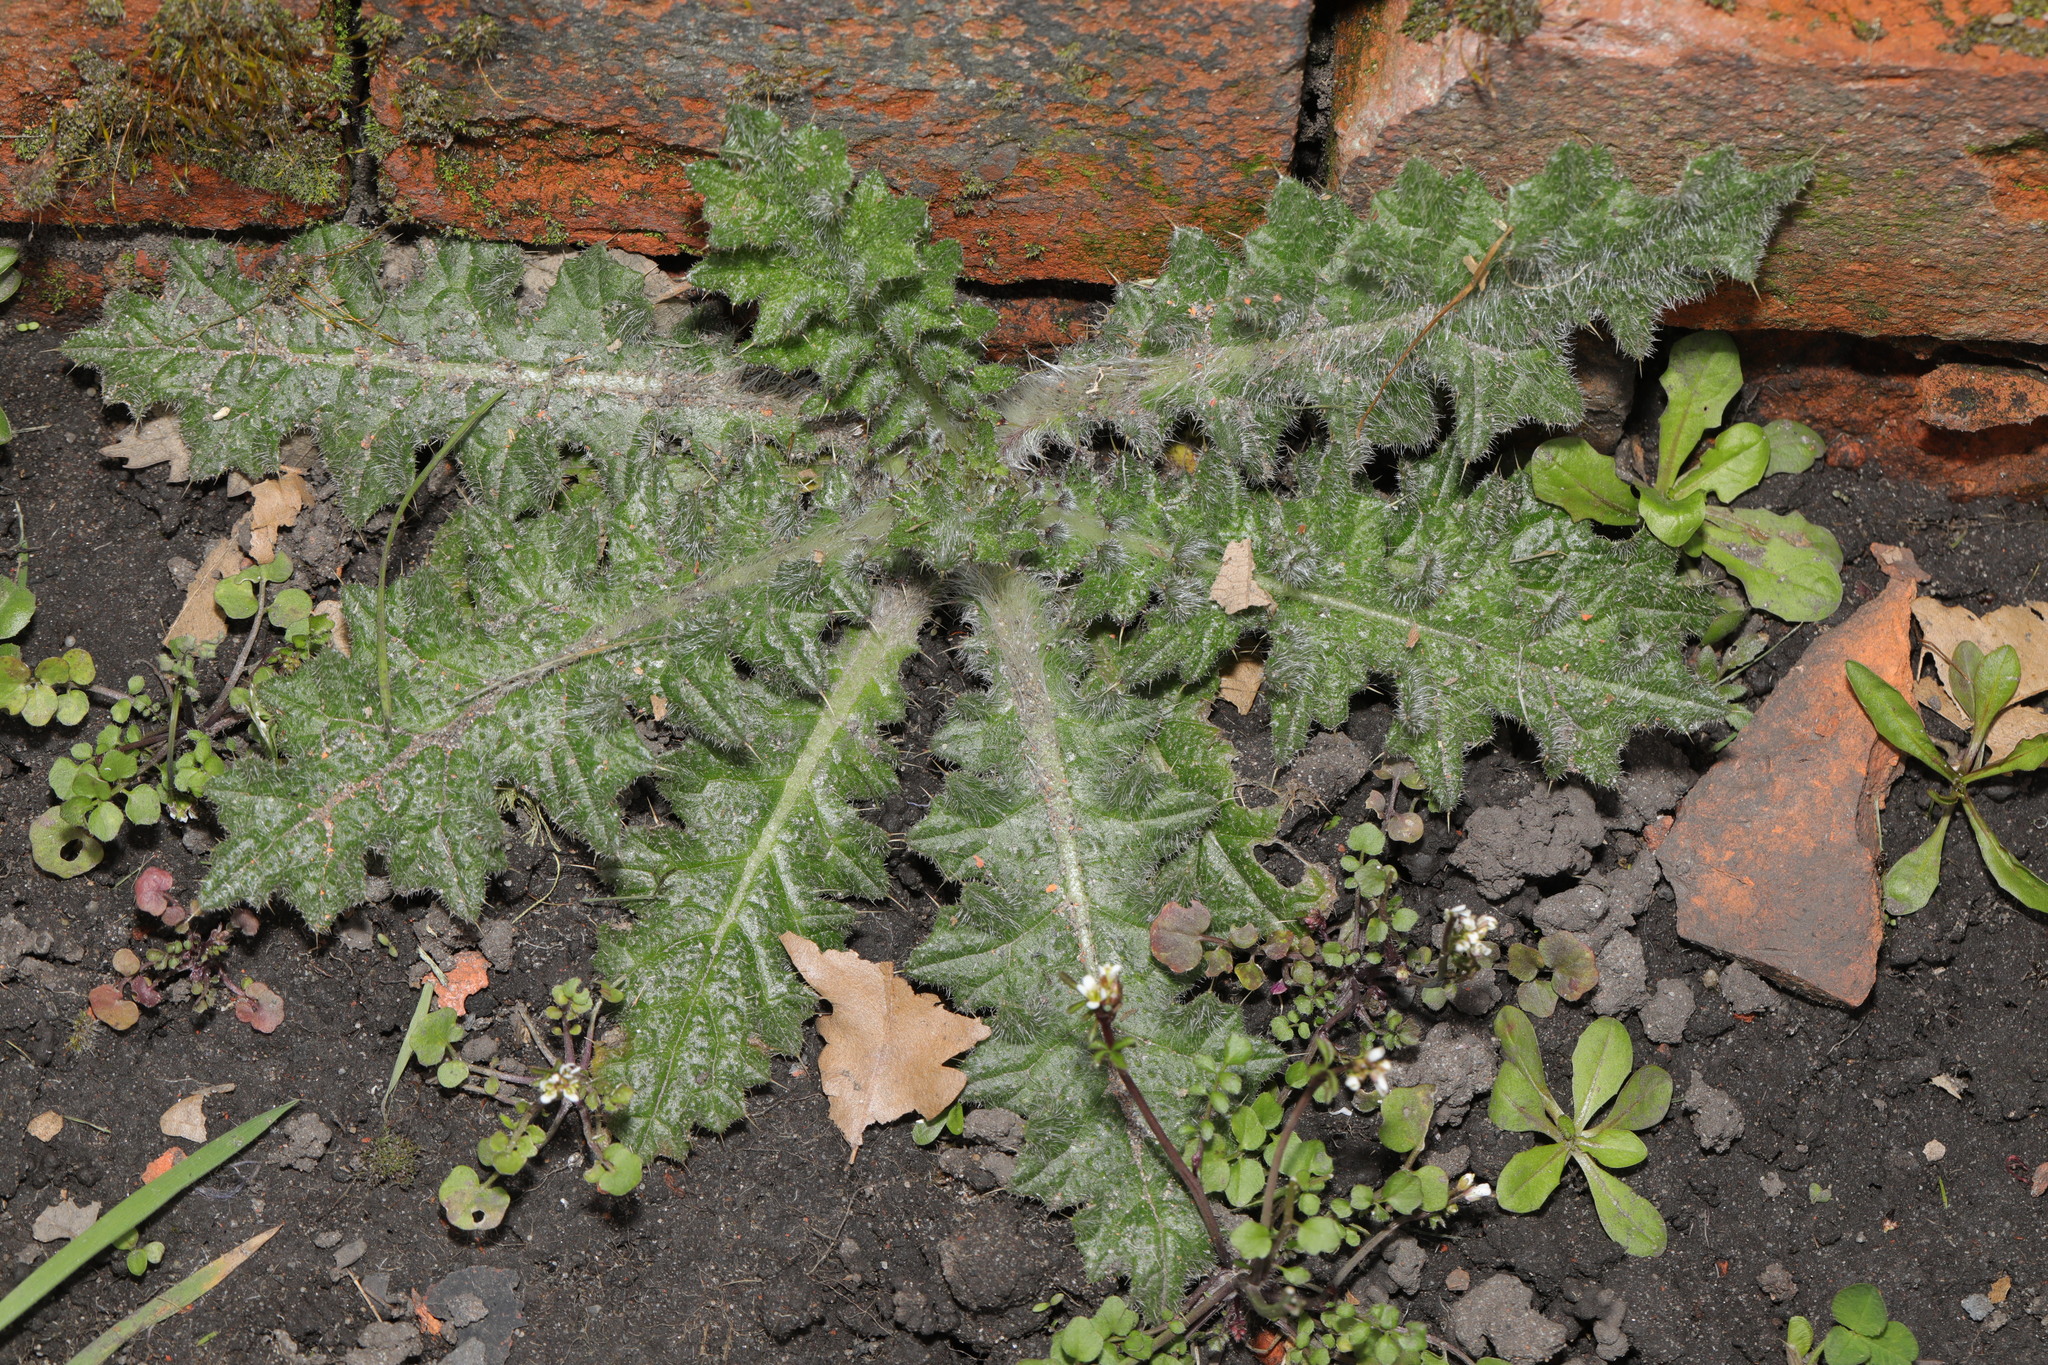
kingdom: Plantae
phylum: Tracheophyta
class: Magnoliopsida
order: Asterales
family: Asteraceae
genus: Cirsium
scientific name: Cirsium vulgare
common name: Bull thistle
